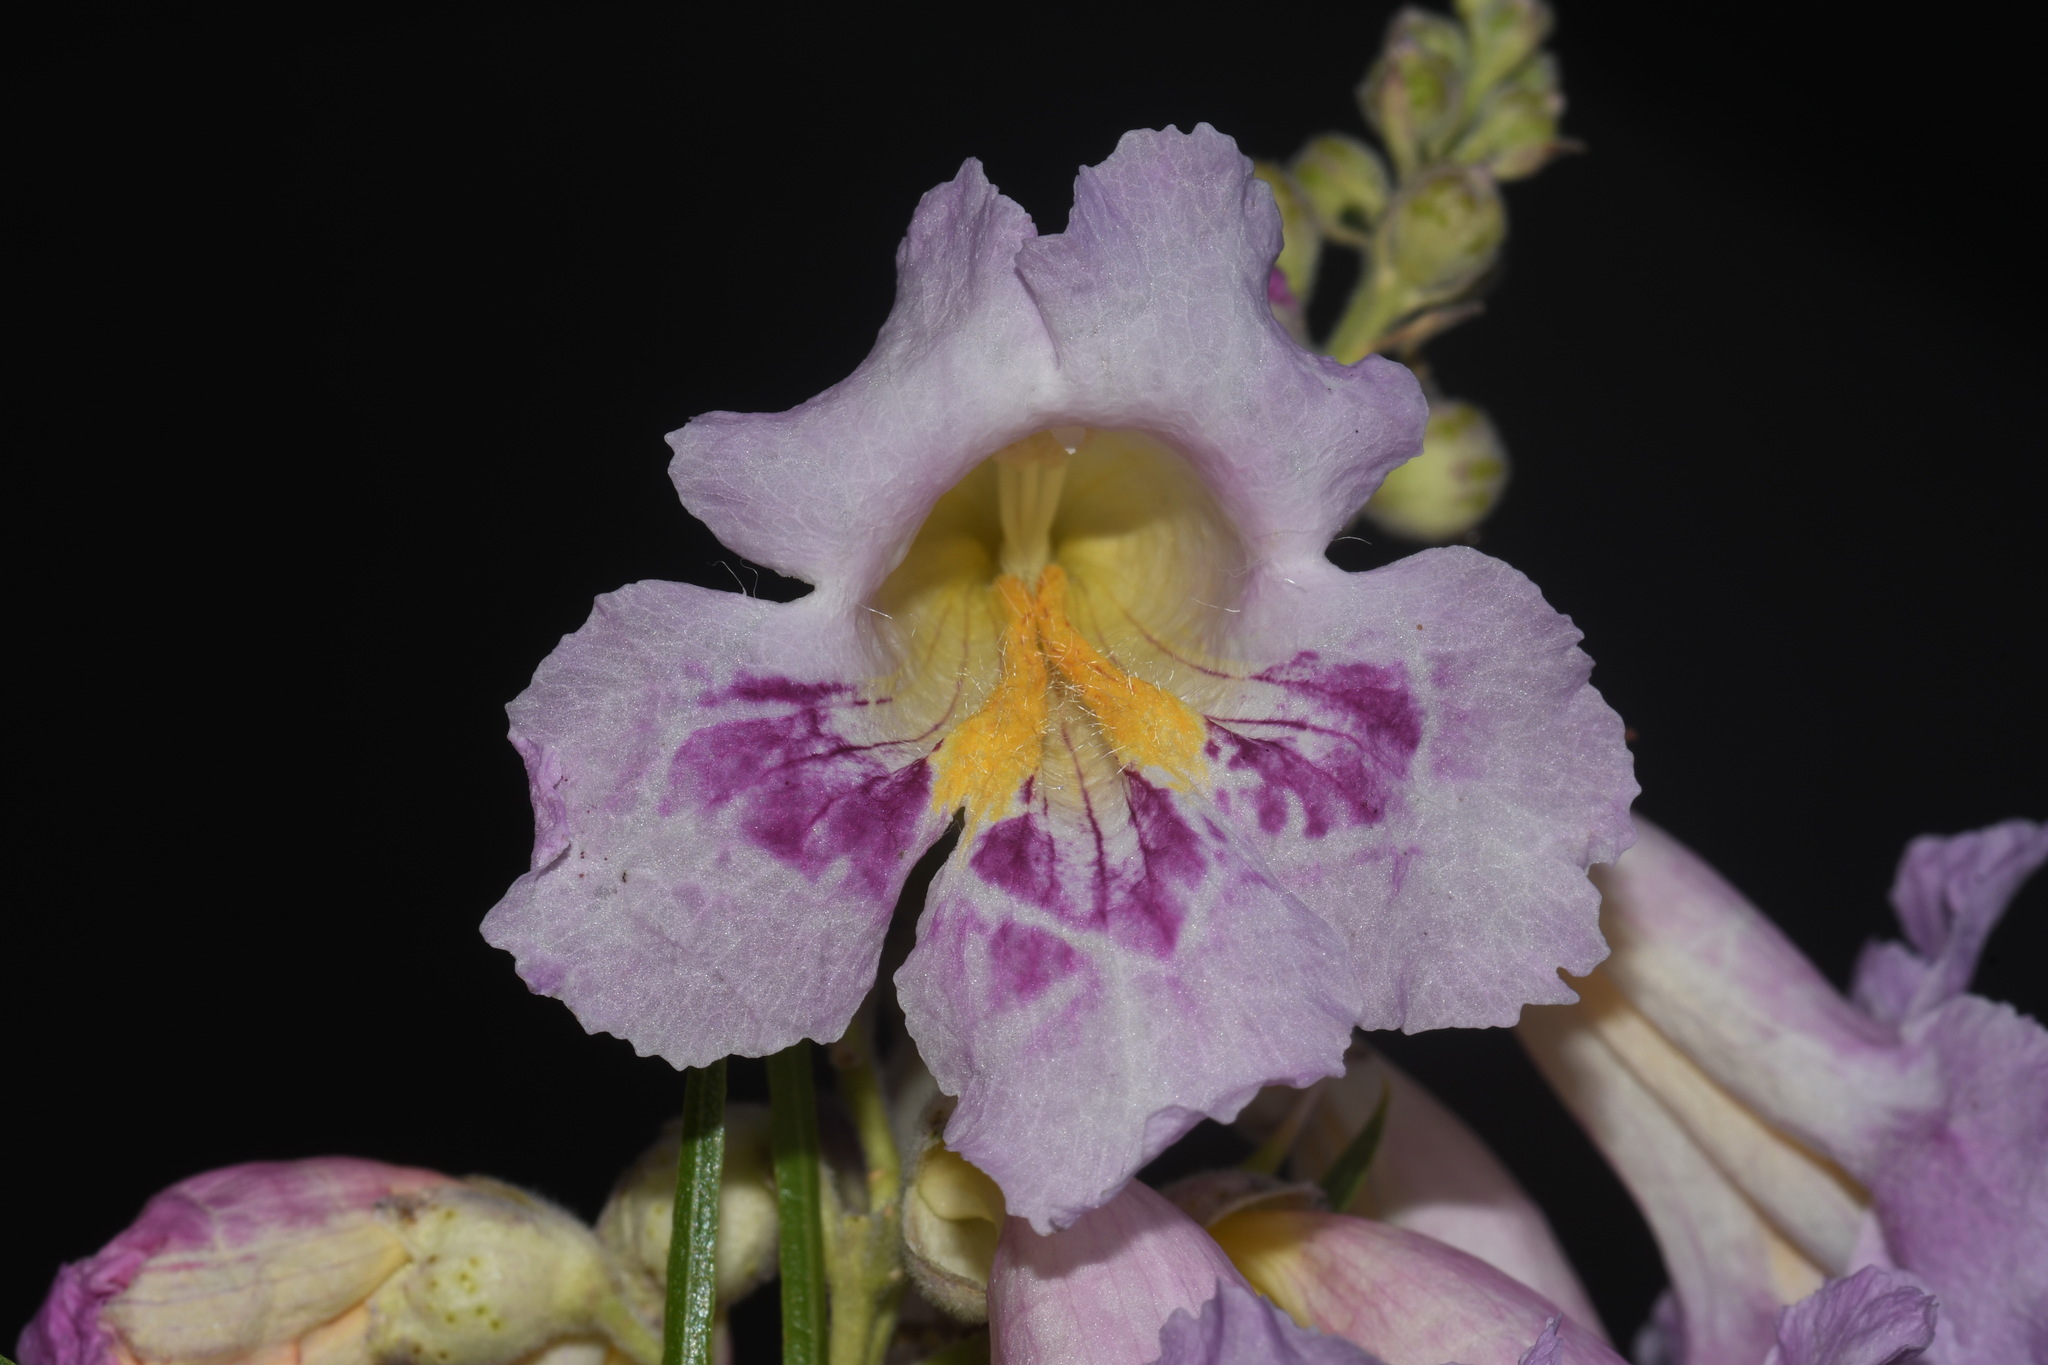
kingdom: Plantae
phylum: Tracheophyta
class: Magnoliopsida
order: Lamiales
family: Bignoniaceae
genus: Chilopsis
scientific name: Chilopsis linearis
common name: Desert-willow
